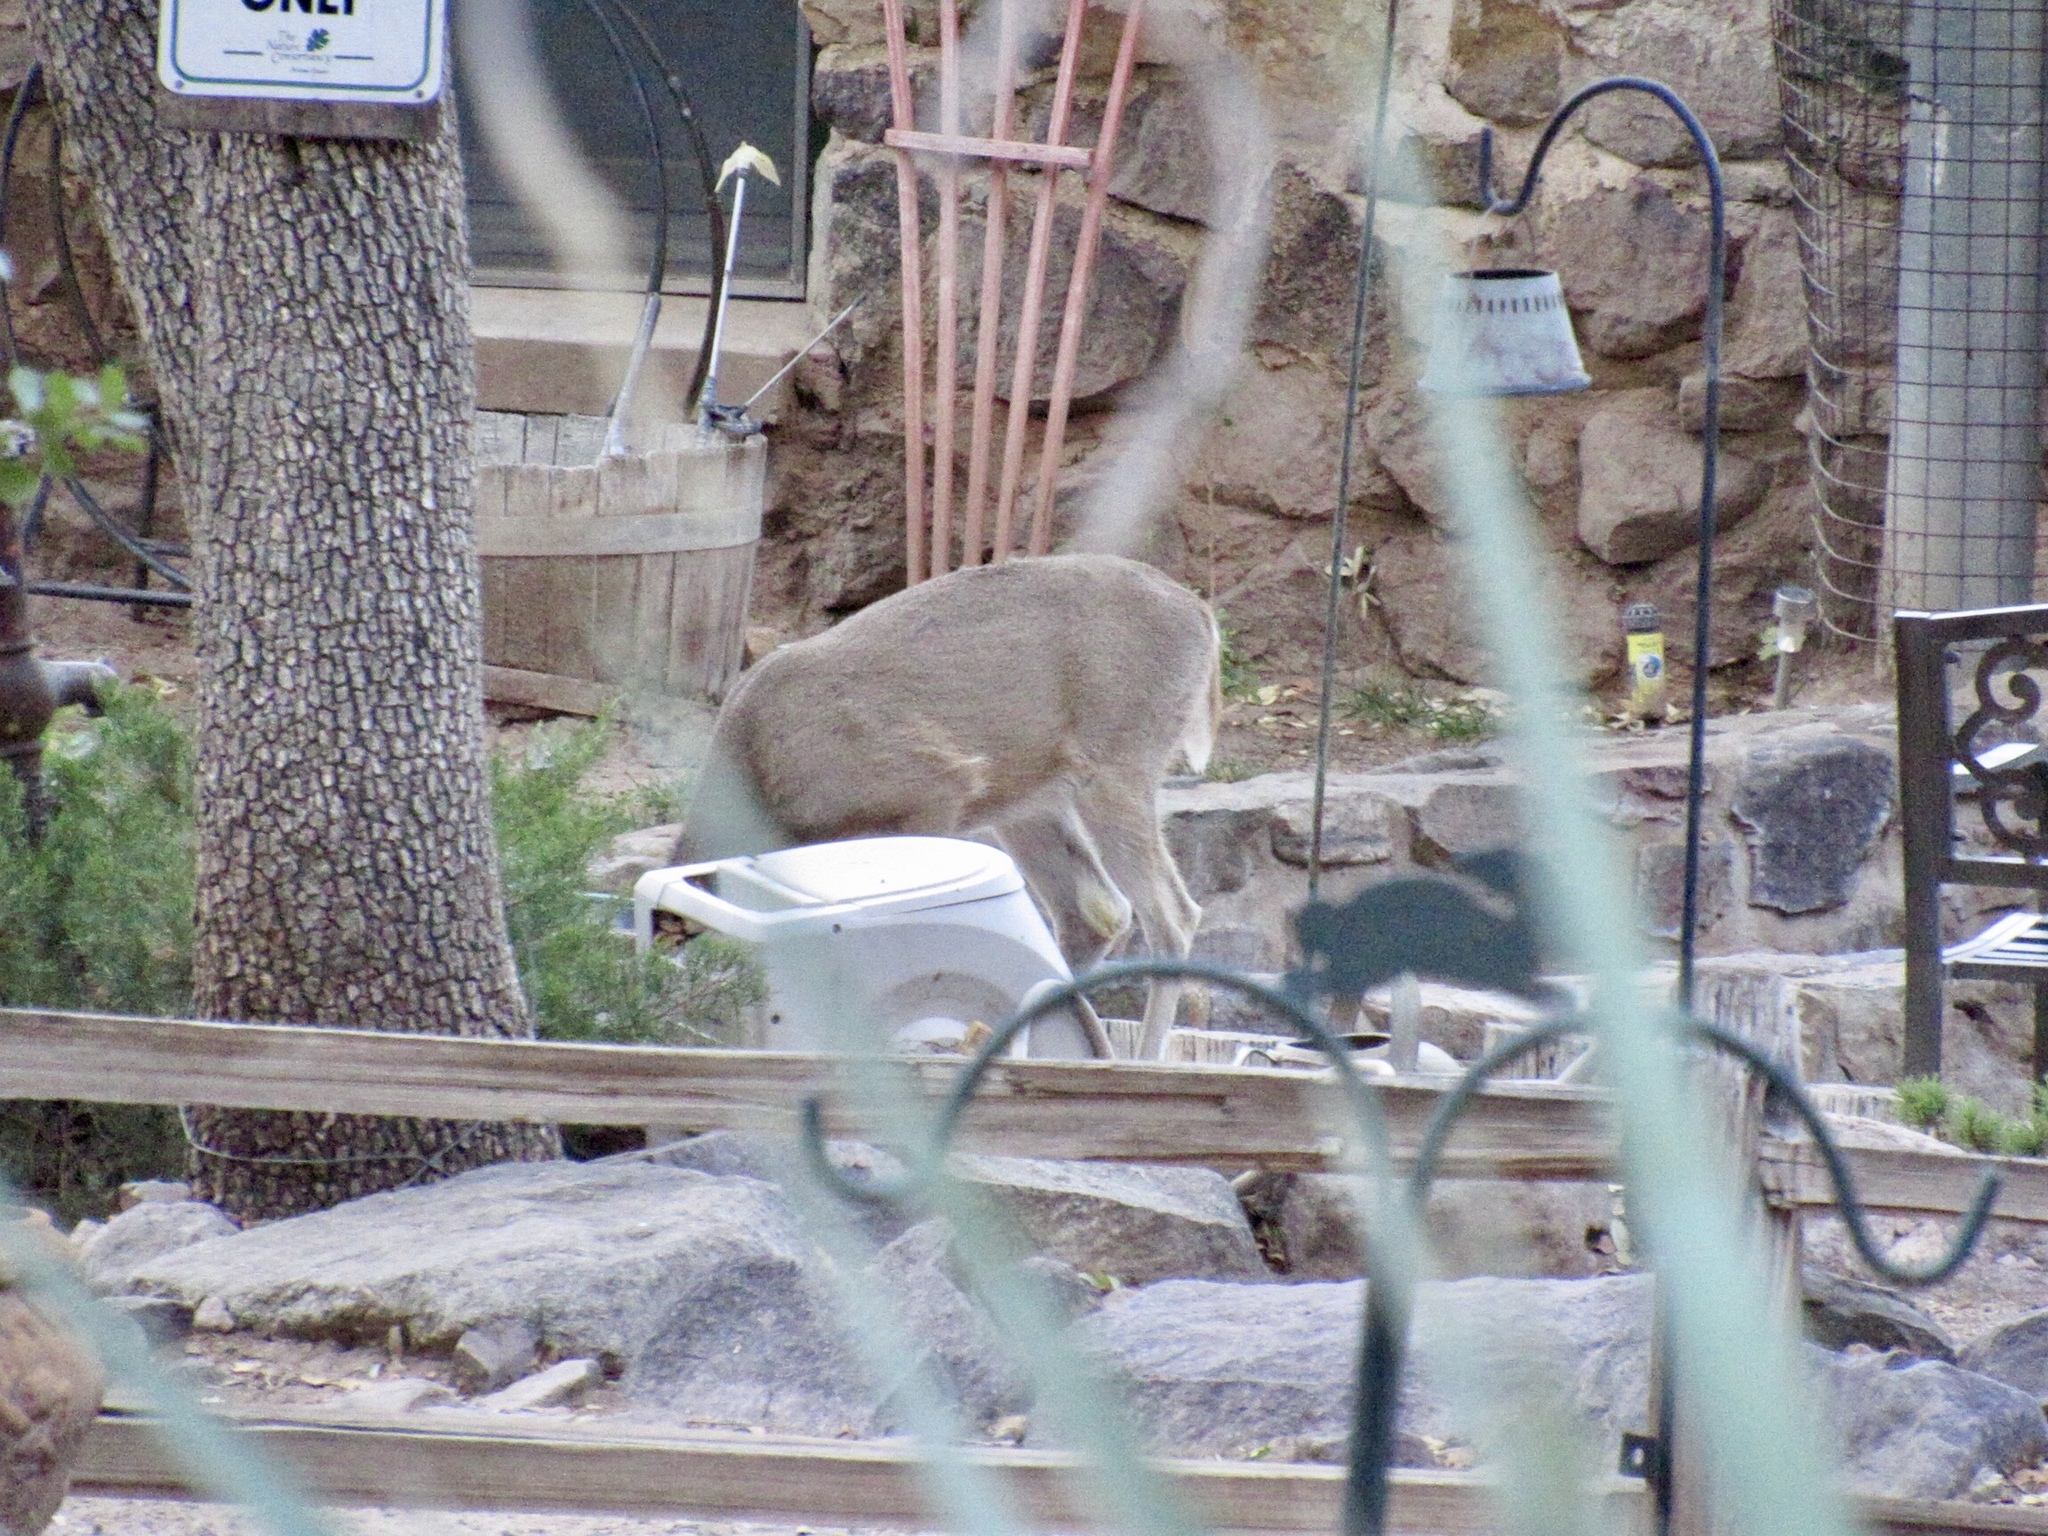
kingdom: Animalia
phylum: Chordata
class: Mammalia
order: Artiodactyla
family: Cervidae
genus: Odocoileus
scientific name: Odocoileus virginianus
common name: White-tailed deer
